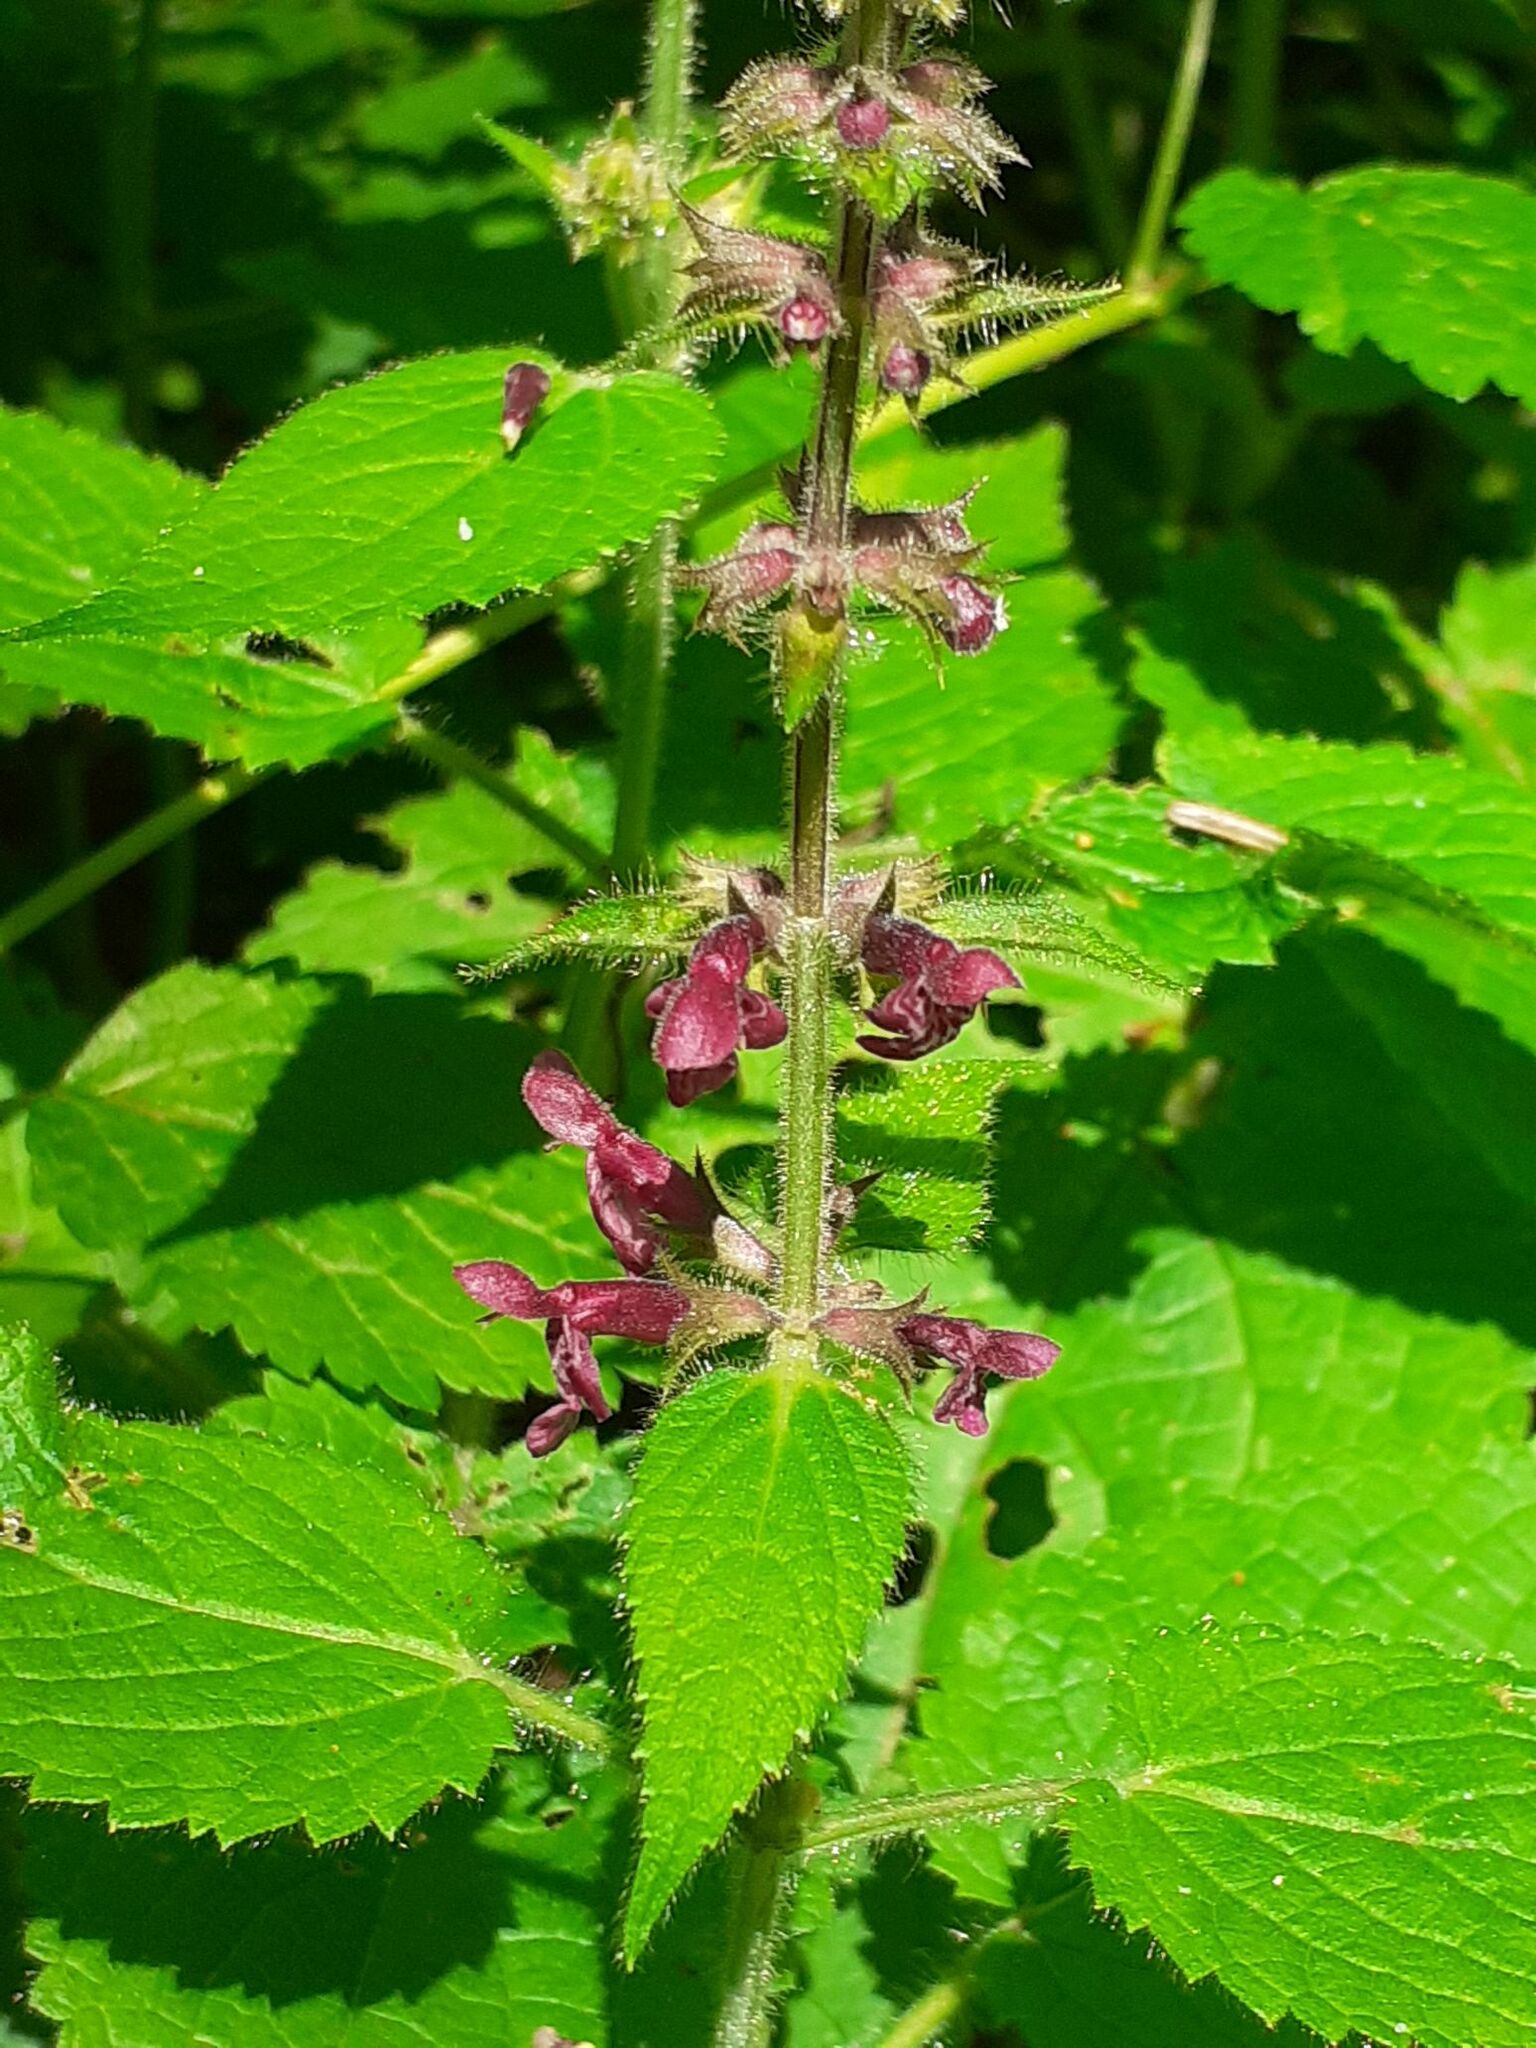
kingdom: Plantae
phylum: Tracheophyta
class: Magnoliopsida
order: Lamiales
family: Lamiaceae
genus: Stachys
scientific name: Stachys sylvatica
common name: Hedge woundwort
